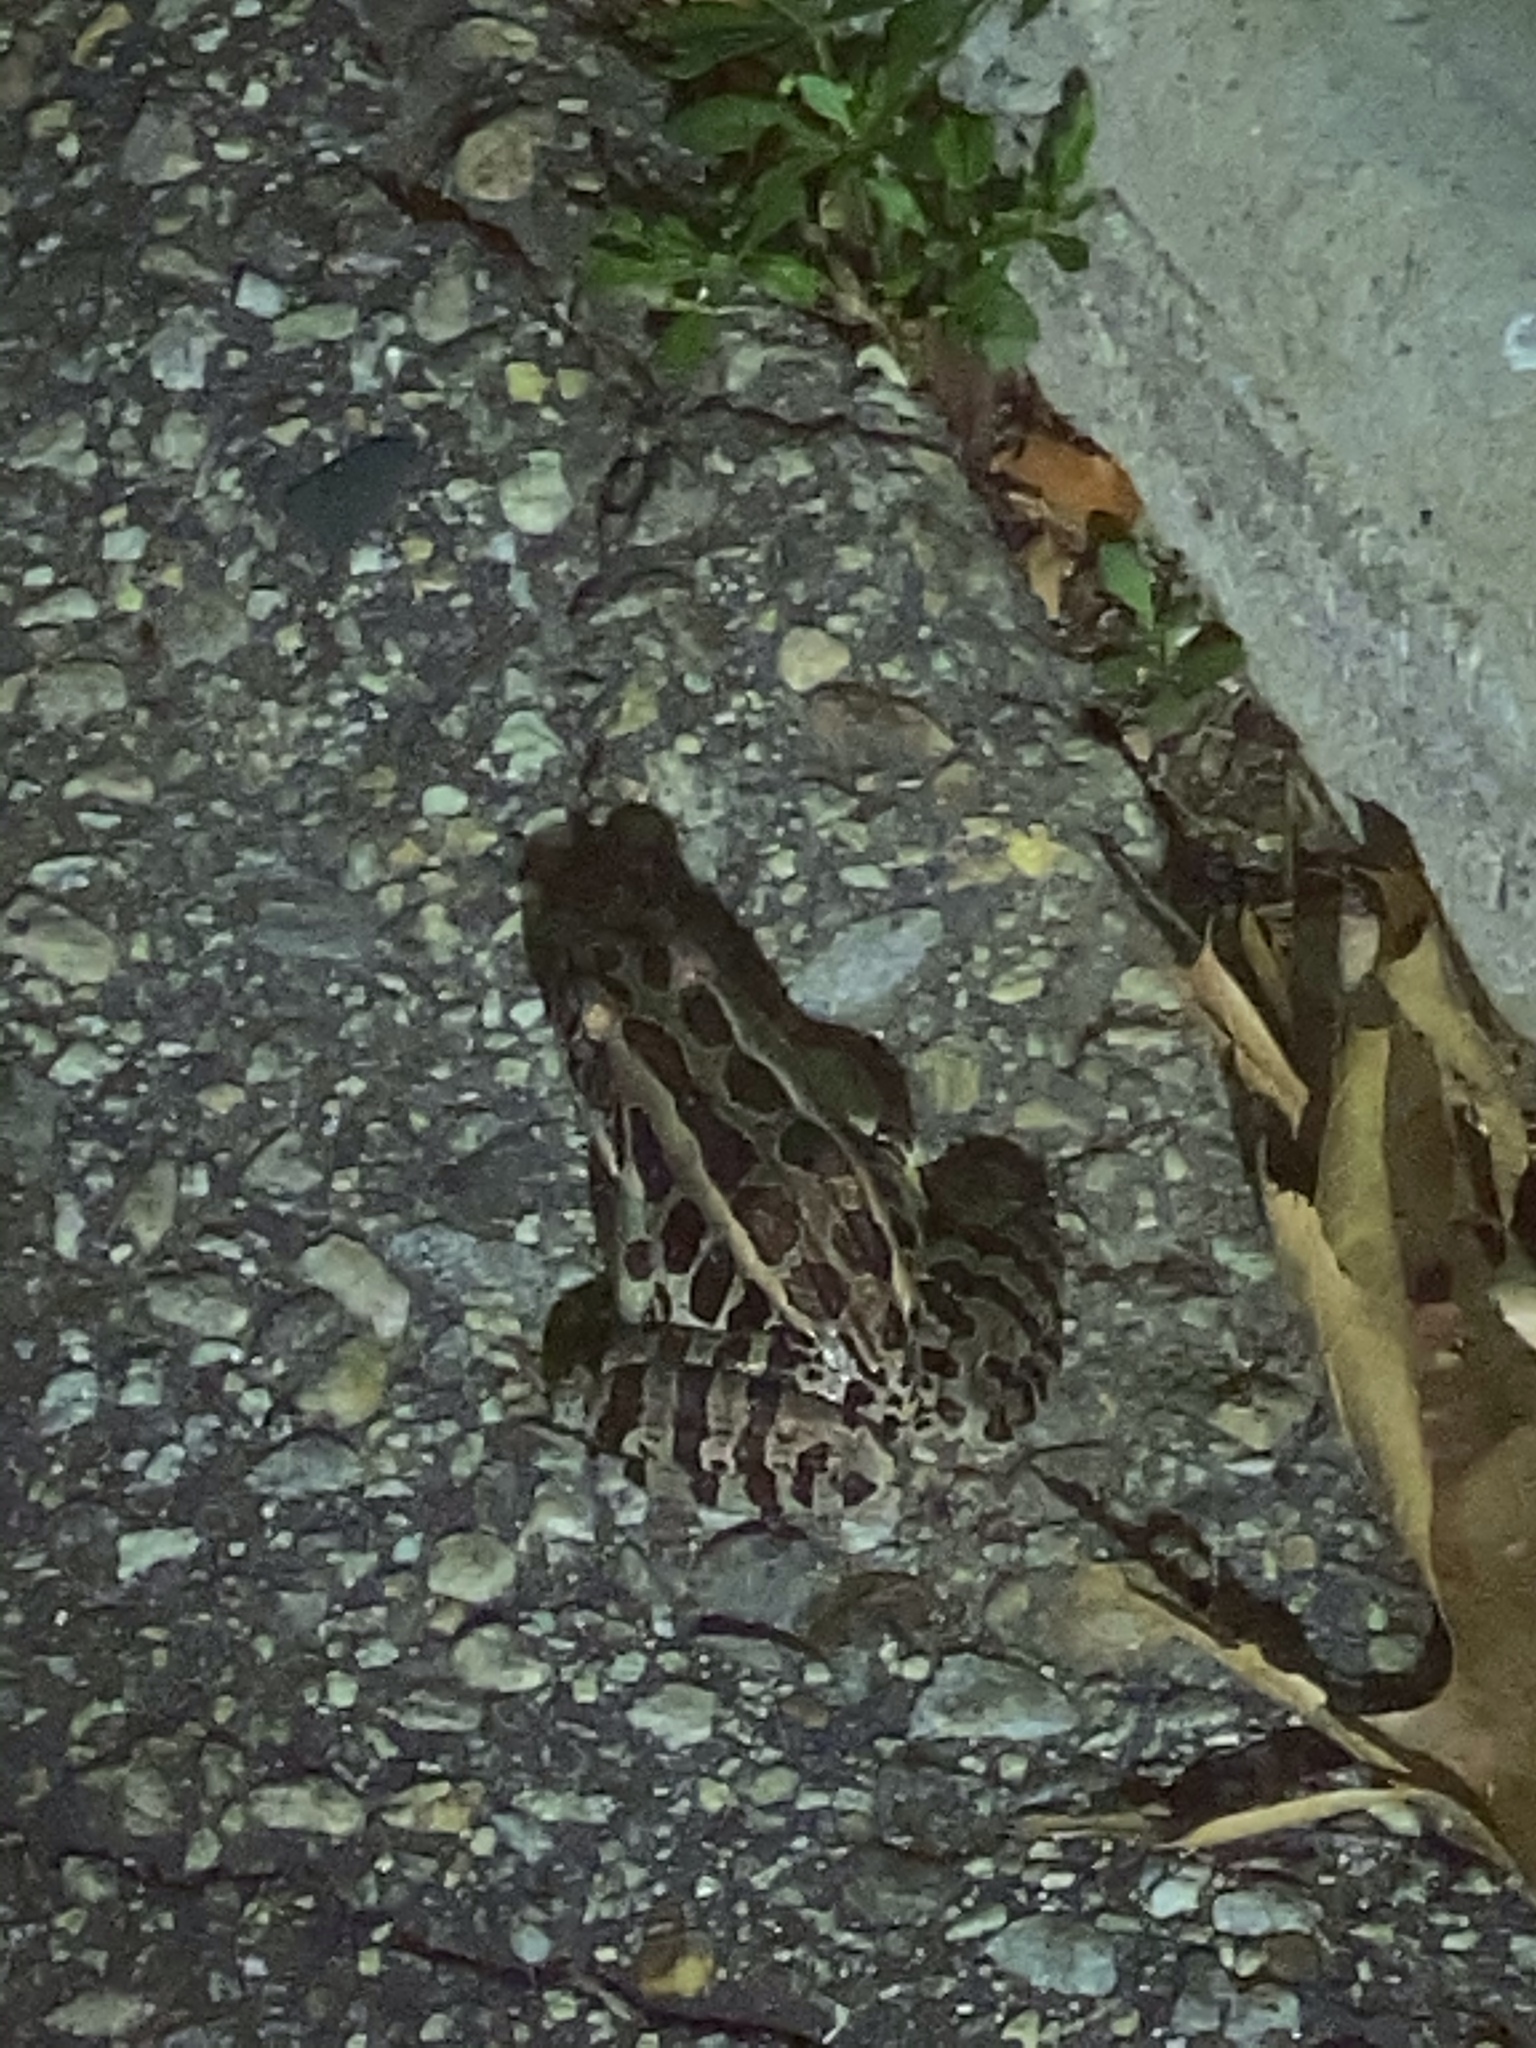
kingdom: Animalia
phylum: Chordata
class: Amphibia
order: Anura
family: Ranidae
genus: Lithobates
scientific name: Lithobates palustris
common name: Pickerel frog
